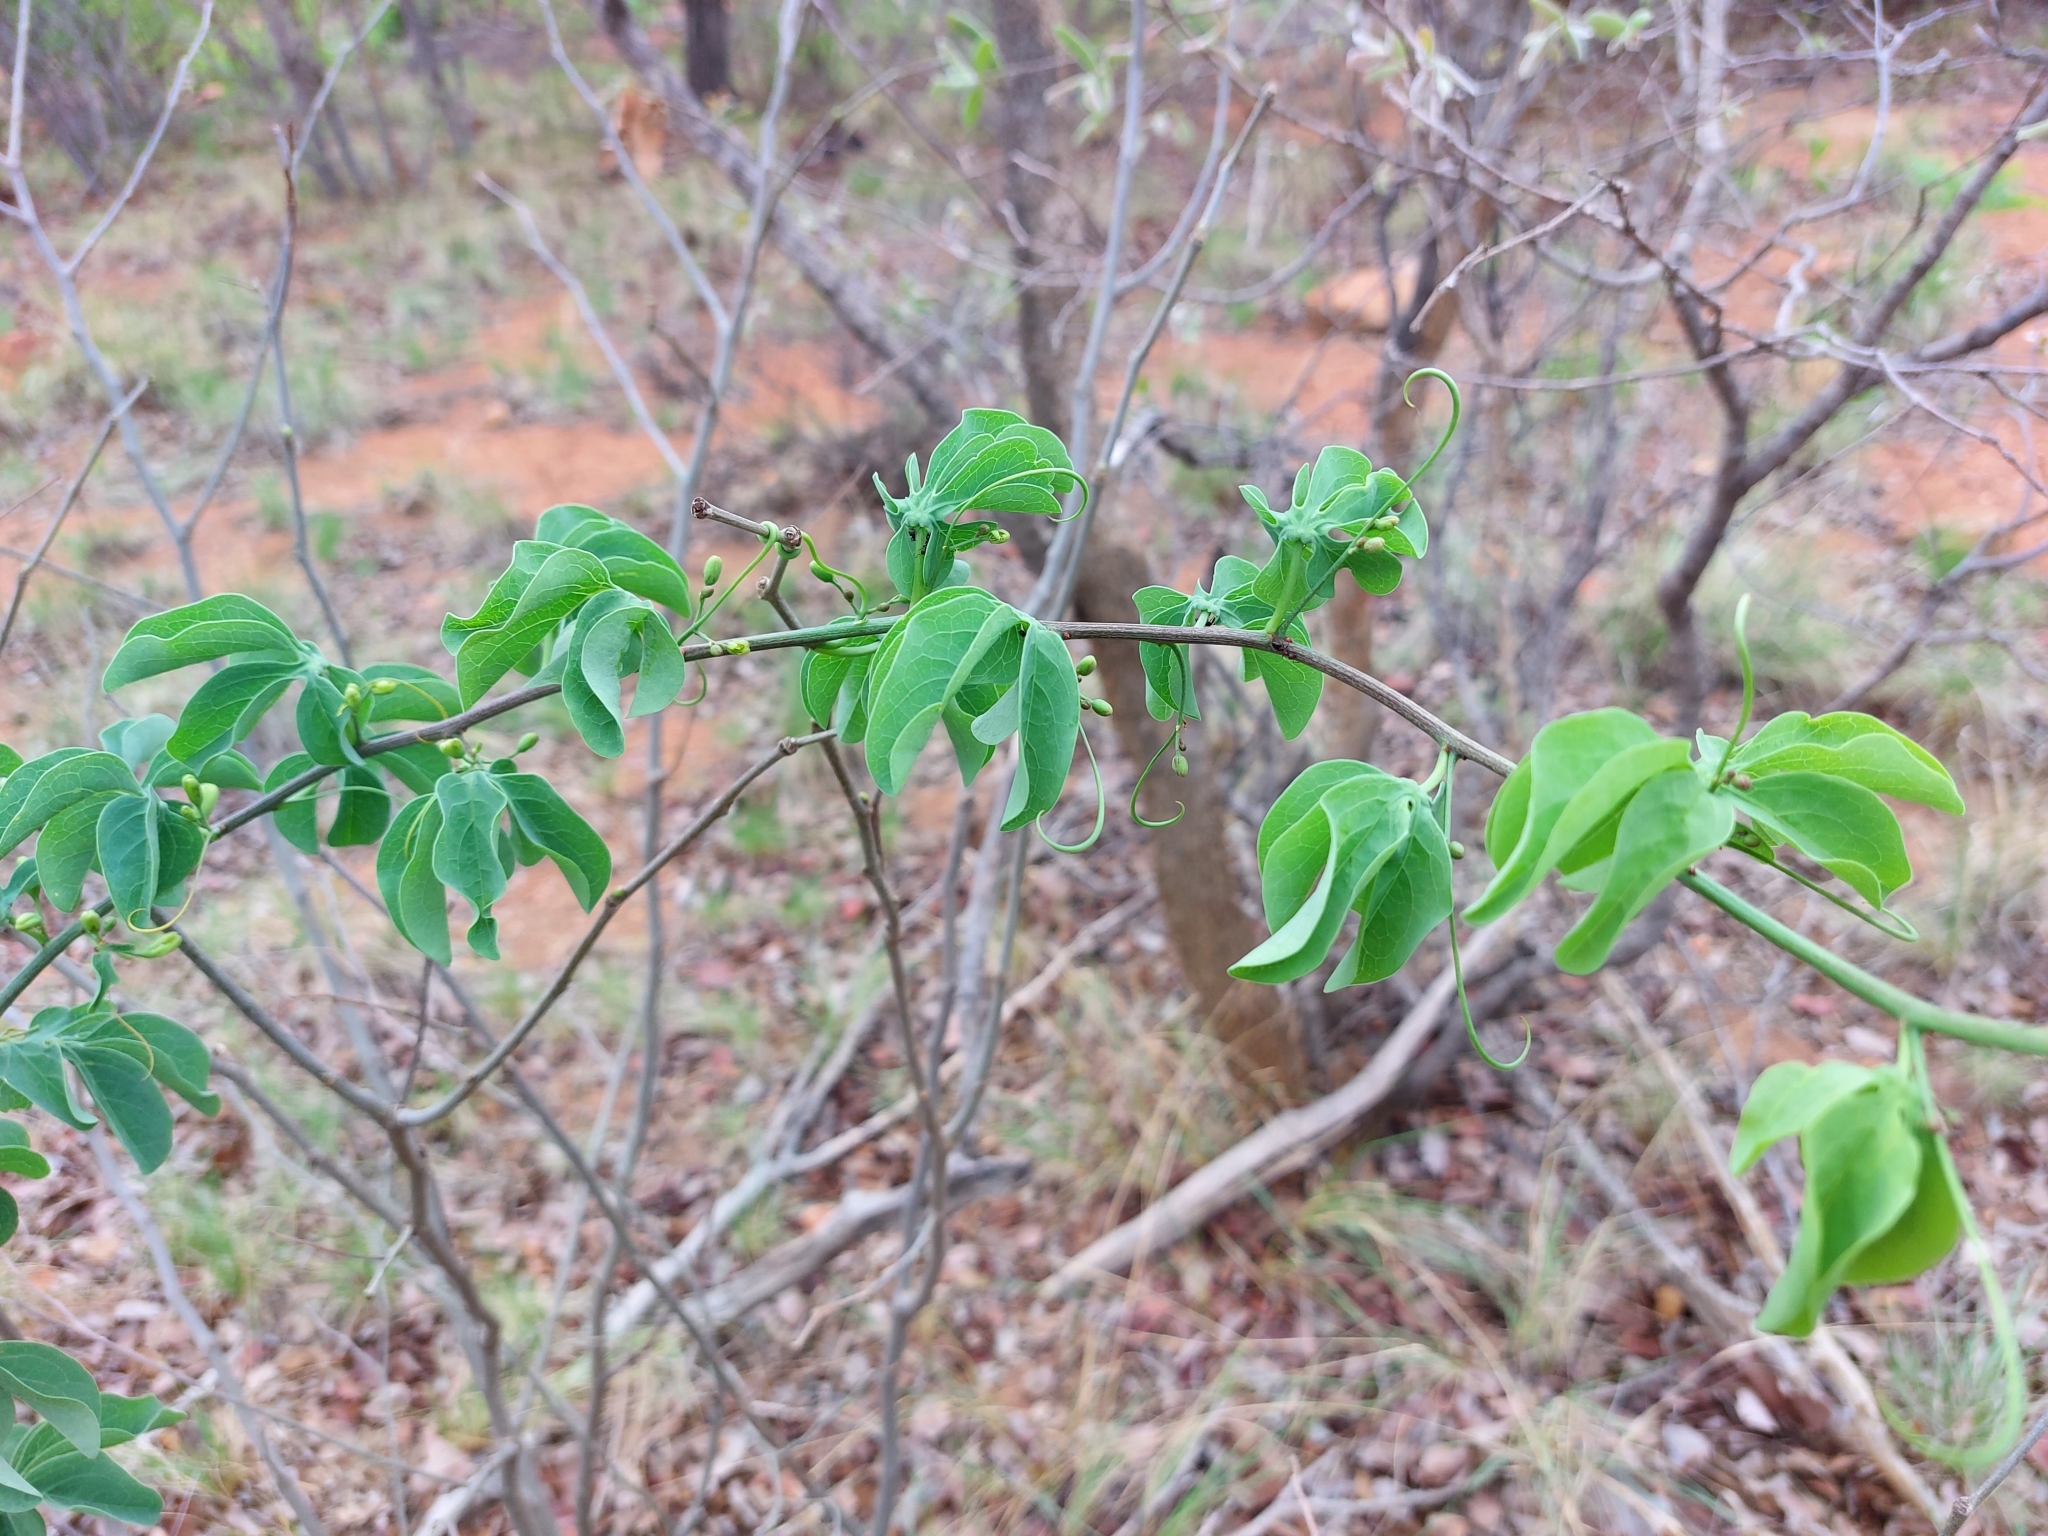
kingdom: Plantae
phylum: Tracheophyta
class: Magnoliopsida
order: Malpighiales
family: Passifloraceae
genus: Adenia
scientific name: Adenia glauca
